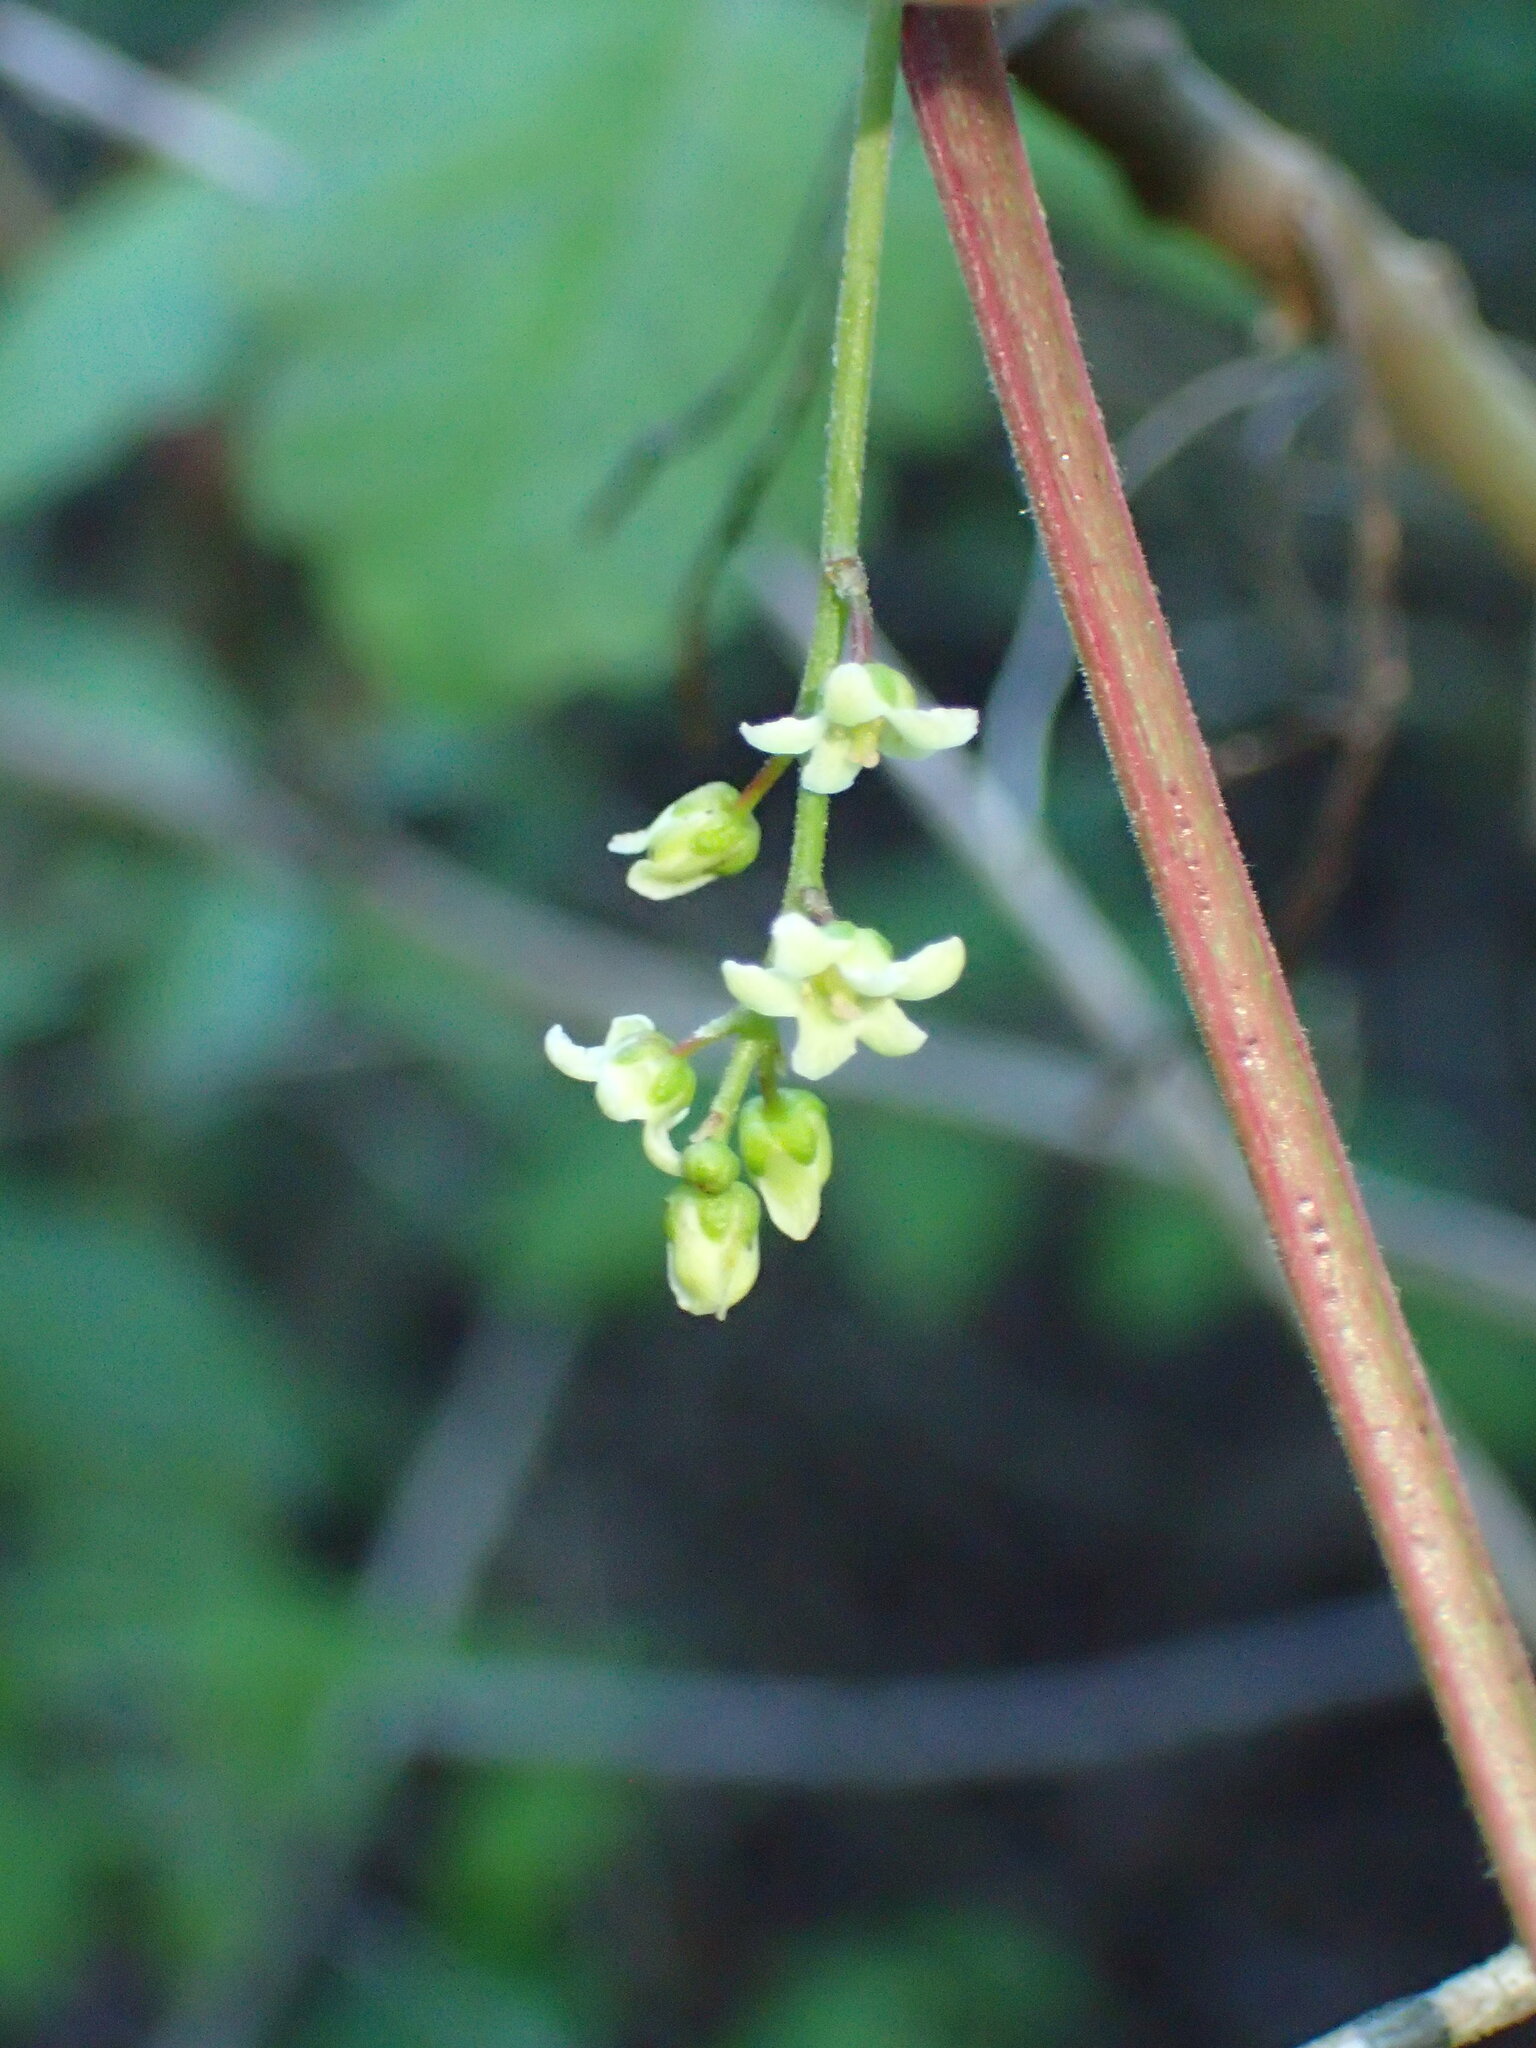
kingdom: Plantae
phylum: Tracheophyta
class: Magnoliopsida
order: Sapindales
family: Anacardiaceae
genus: Toxicodendron
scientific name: Toxicodendron diversilobum
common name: Pacific poison-oak
